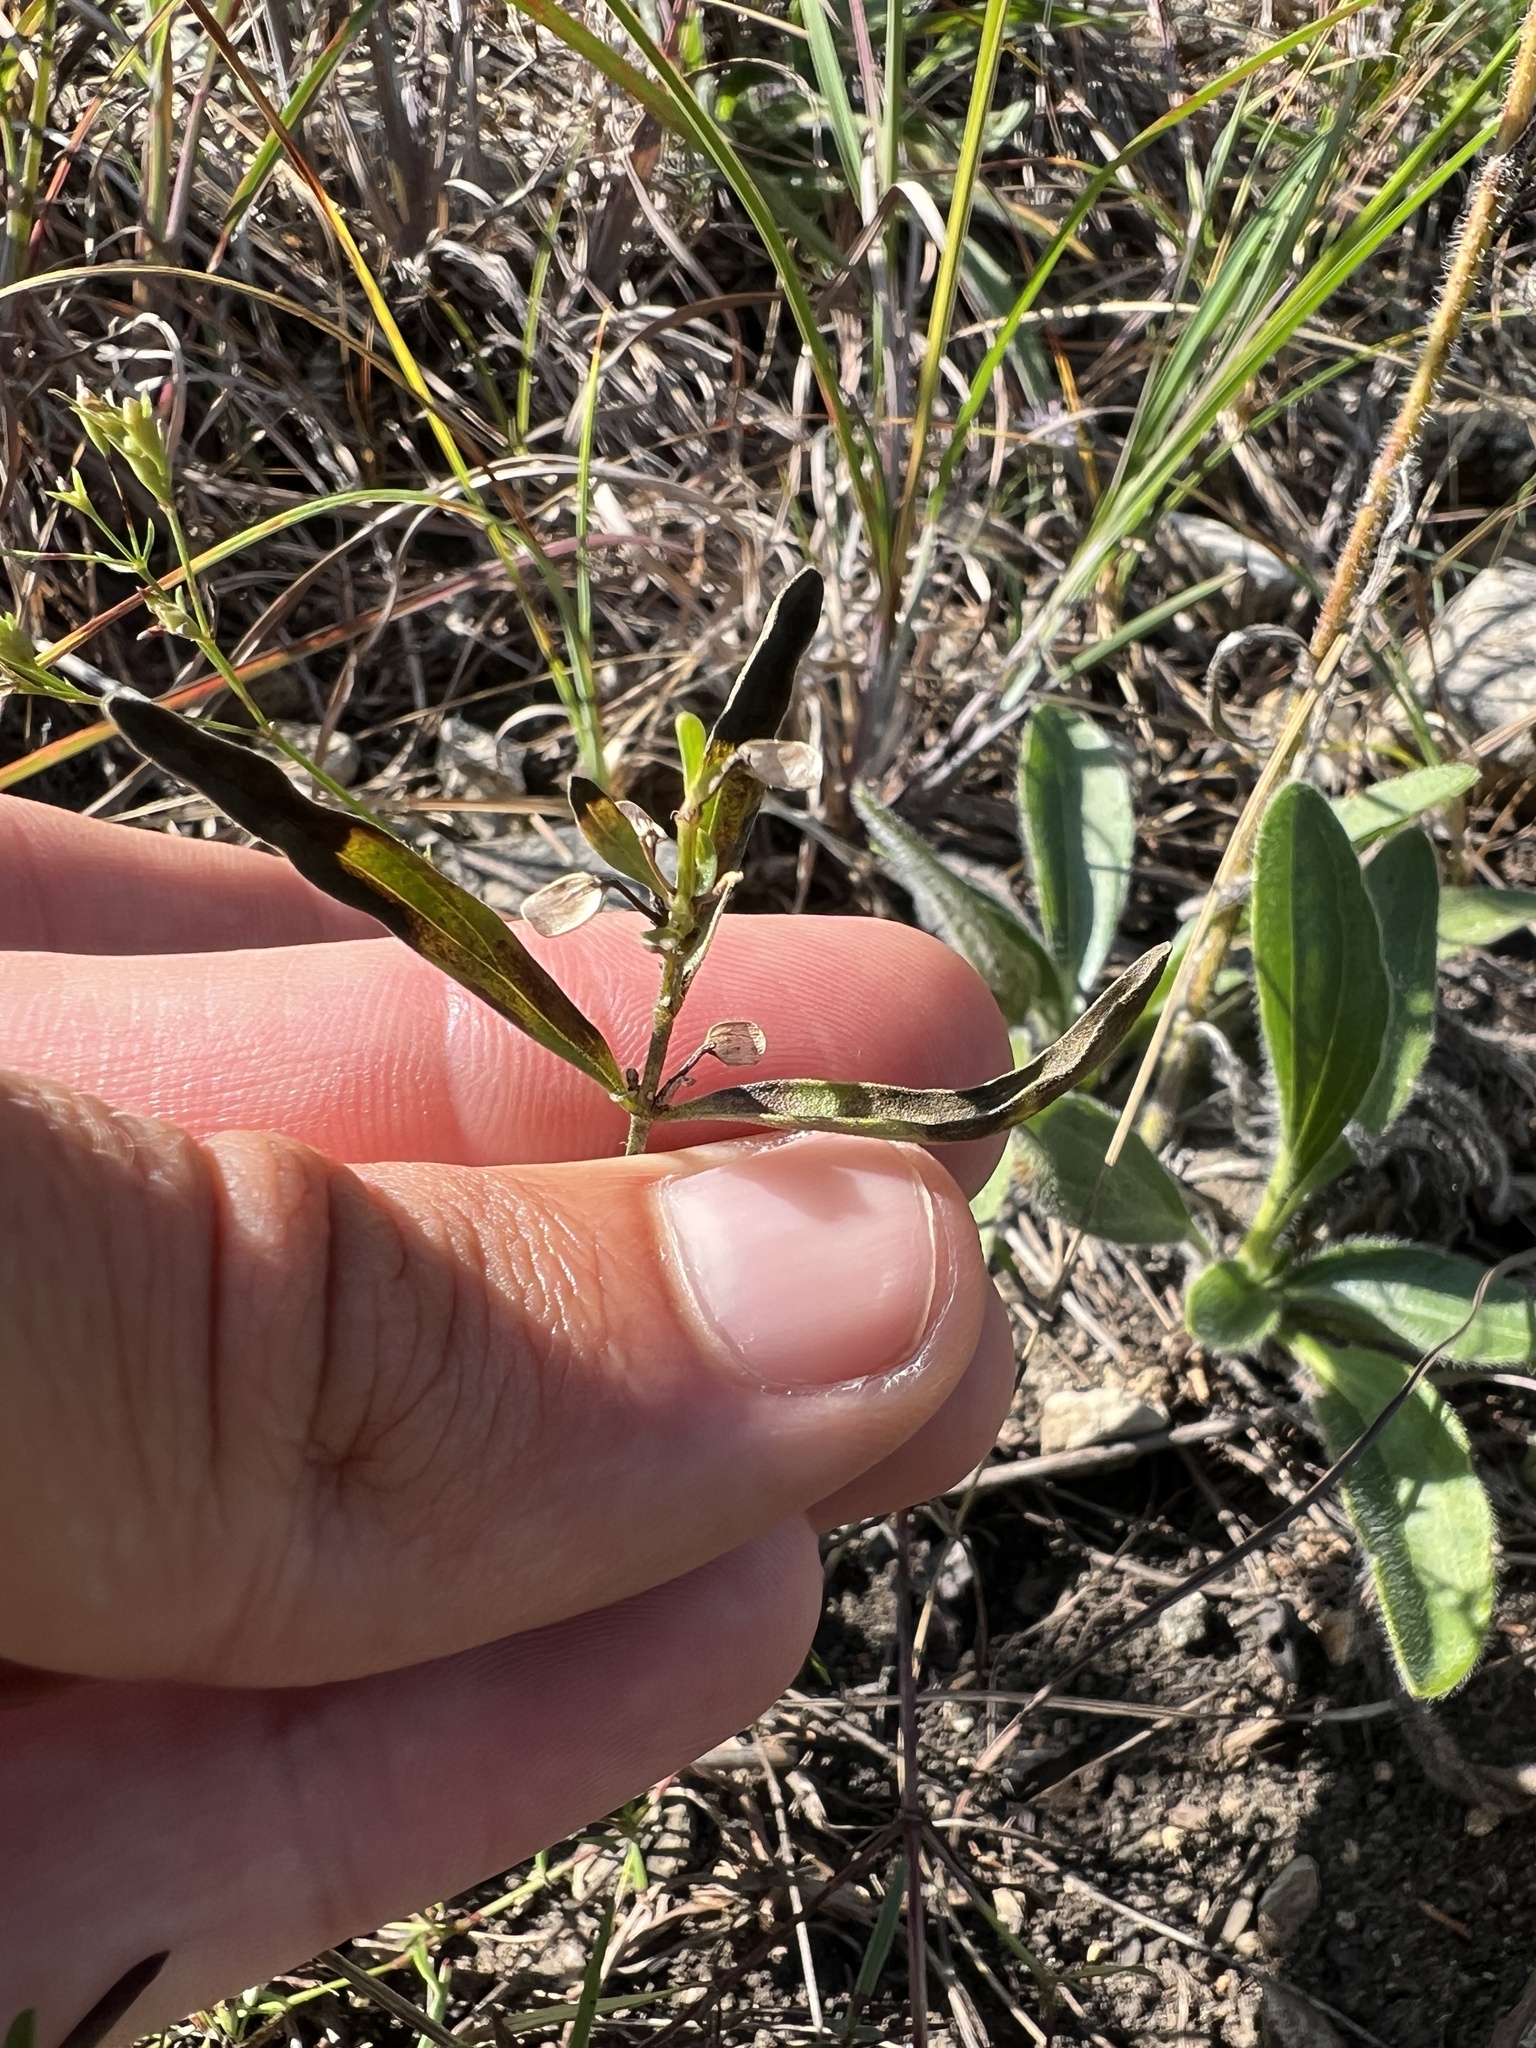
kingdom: Plantae
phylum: Tracheophyta
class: Magnoliopsida
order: Lamiales
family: Lamiaceae
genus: Scutellaria
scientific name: Scutellaria bushii
